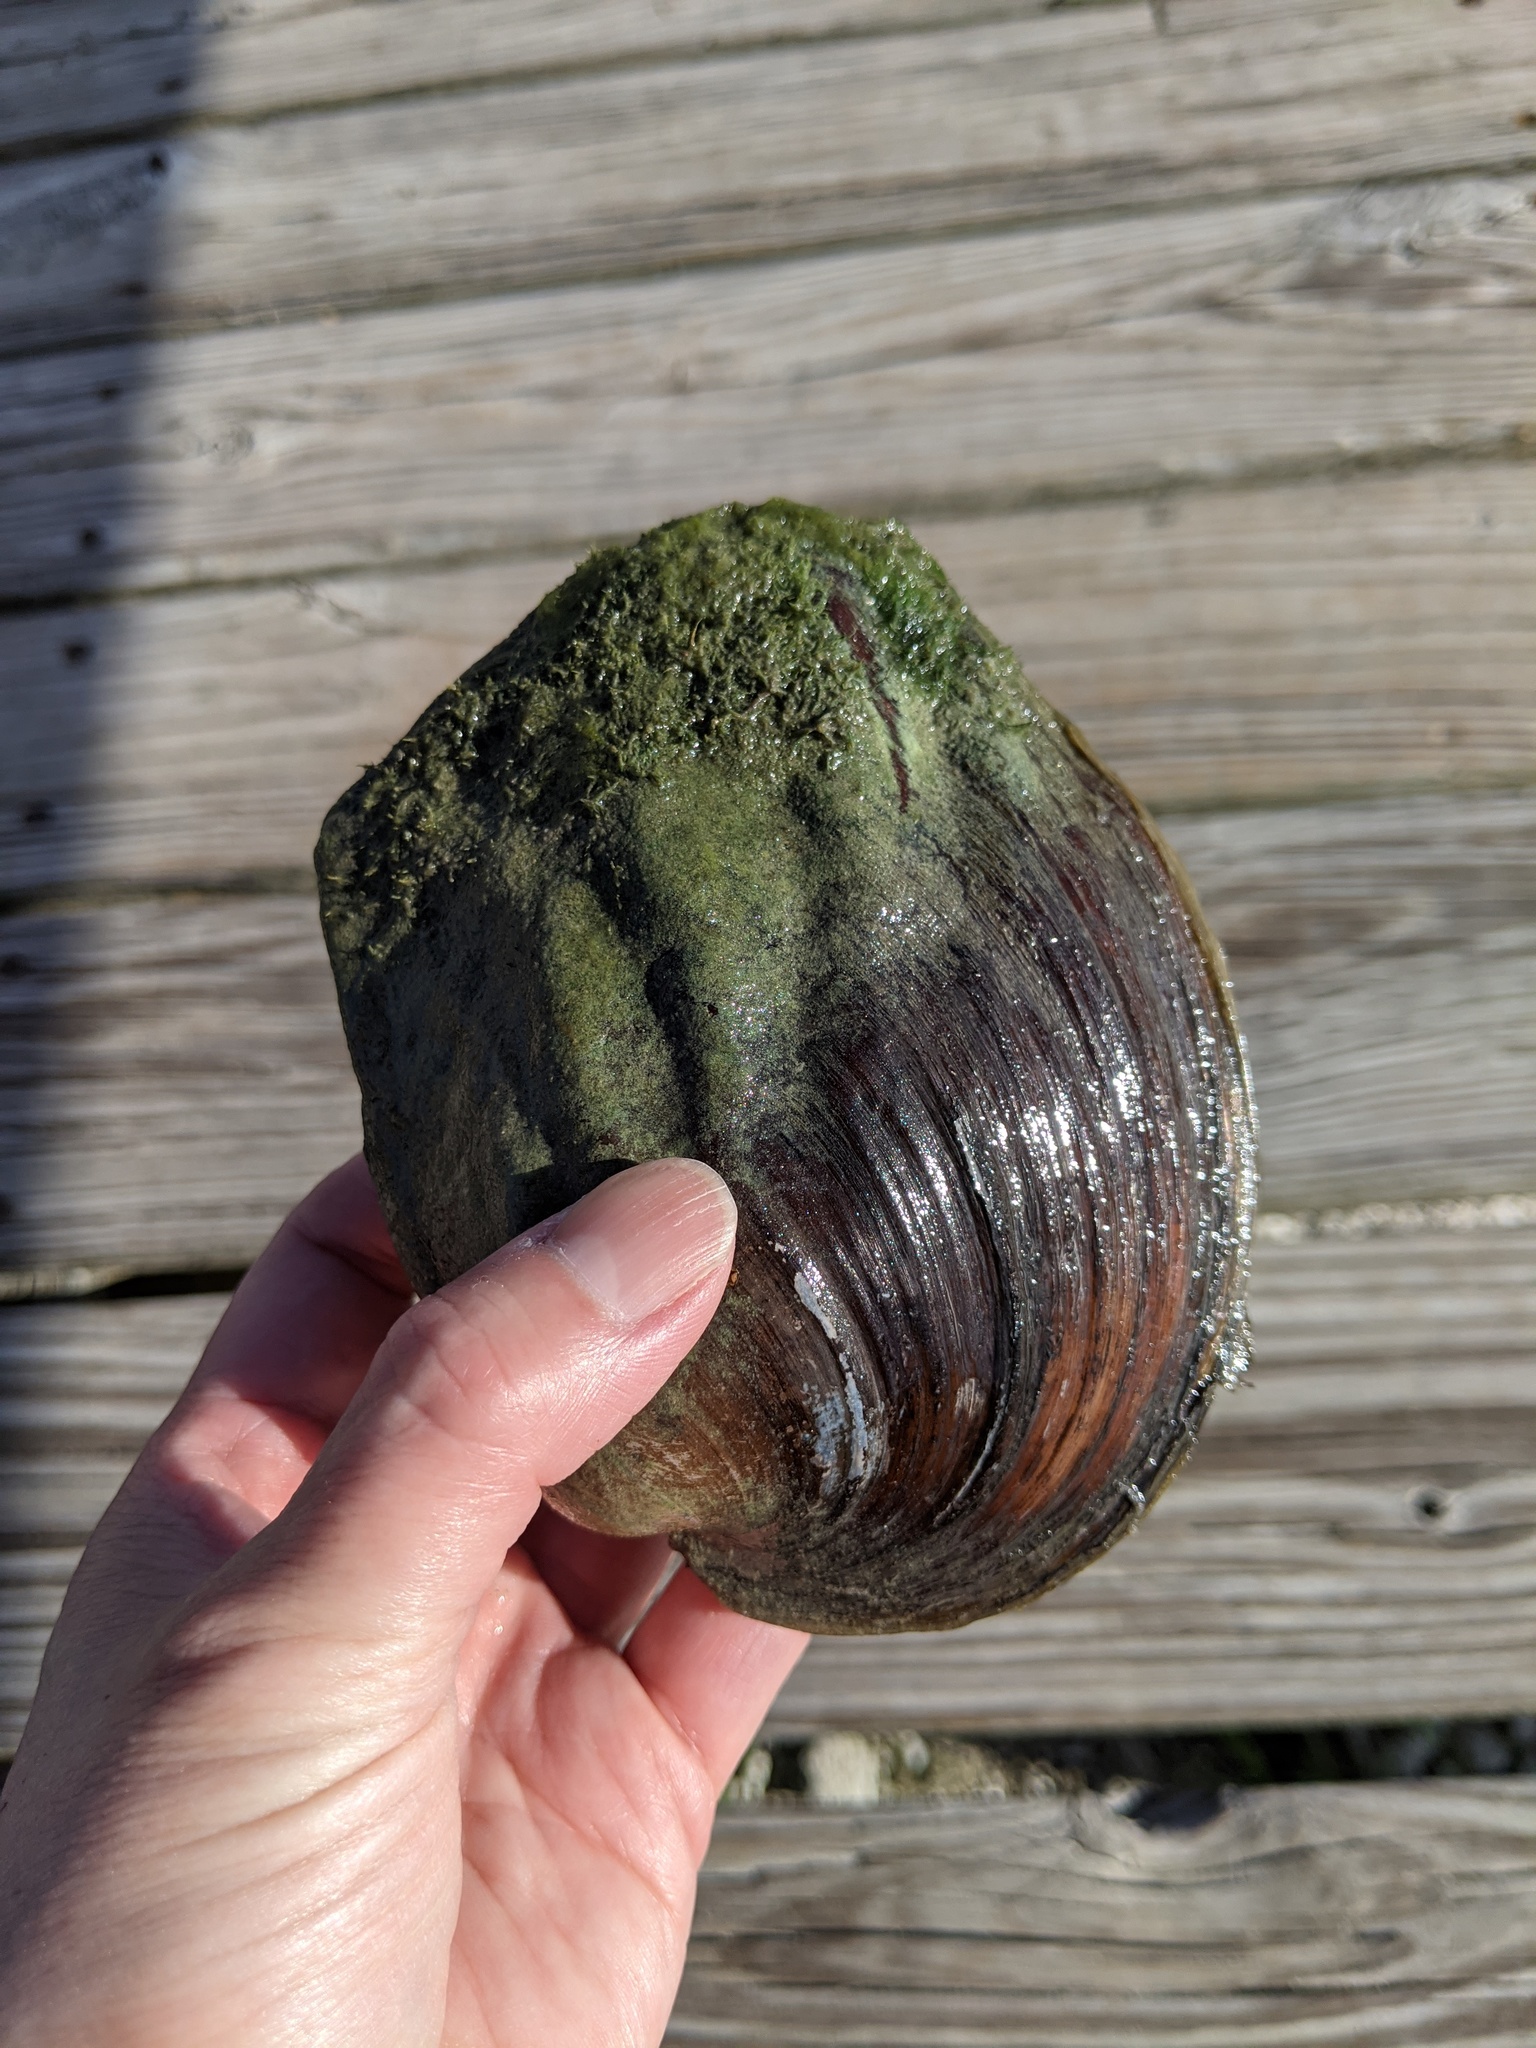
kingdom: Animalia
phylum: Mollusca
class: Bivalvia
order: Unionida
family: Unionidae
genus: Amblema
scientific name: Amblema plicata
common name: Threeridge
